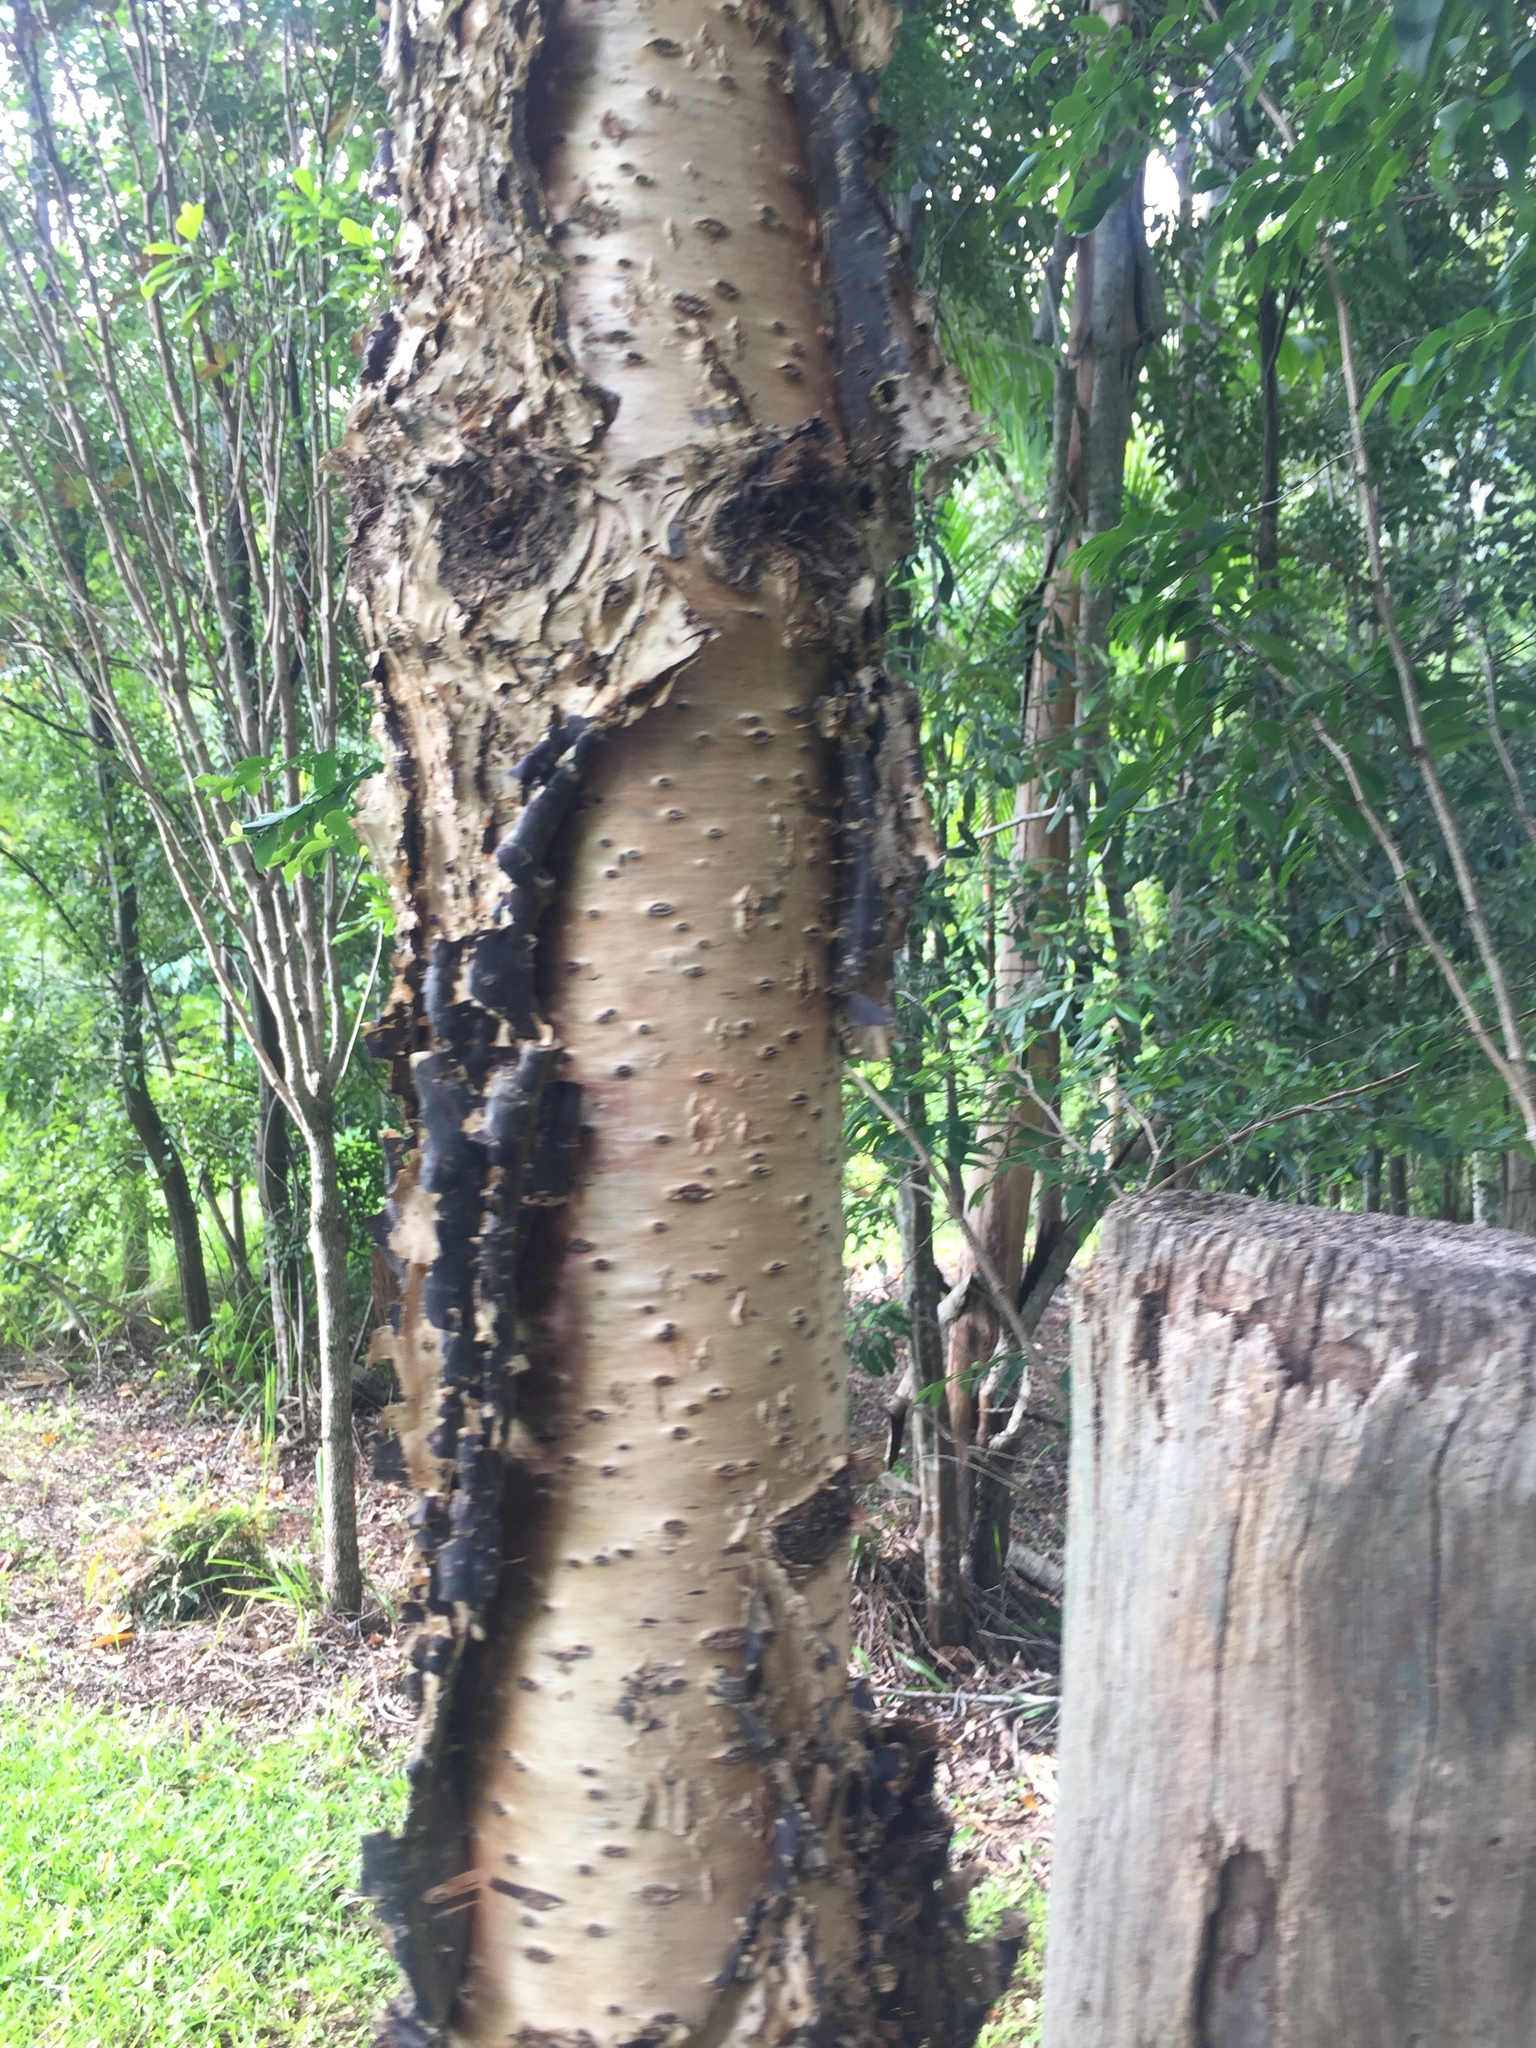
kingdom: Plantae
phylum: Tracheophyta
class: Pinopsida
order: Pinales
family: Araucariaceae
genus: Araucaria
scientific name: Araucaria cunninghamii
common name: Colonial pine
